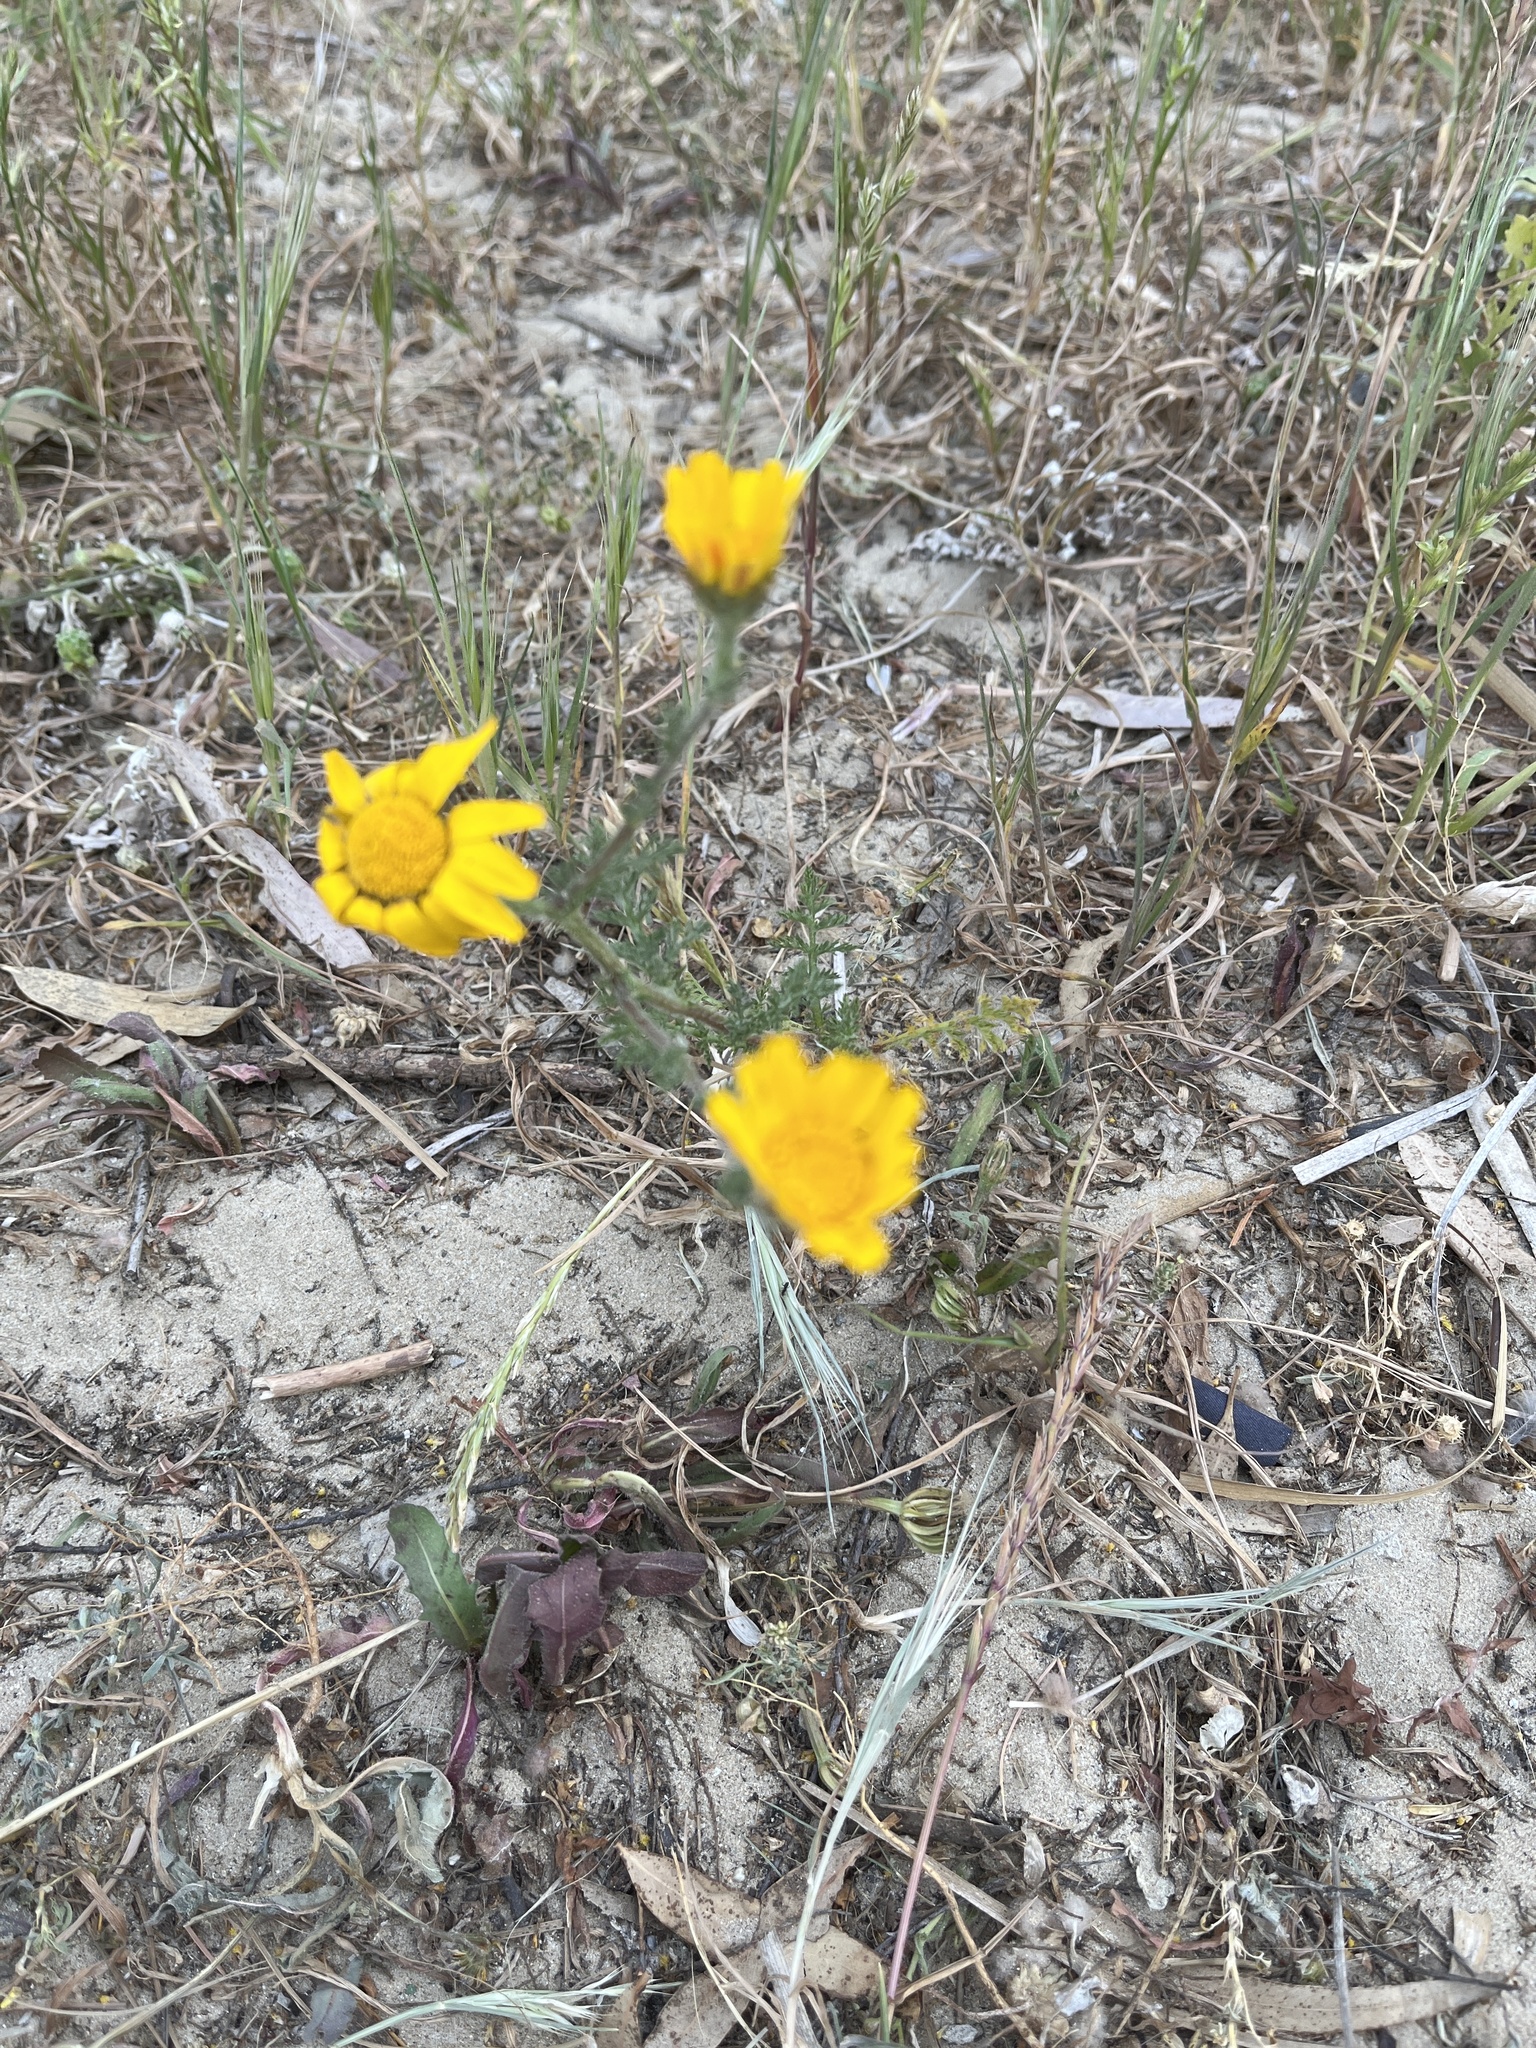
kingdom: Plantae
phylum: Tracheophyta
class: Magnoliopsida
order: Asterales
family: Asteraceae
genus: Anacyclus
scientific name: Anacyclus radiatus
